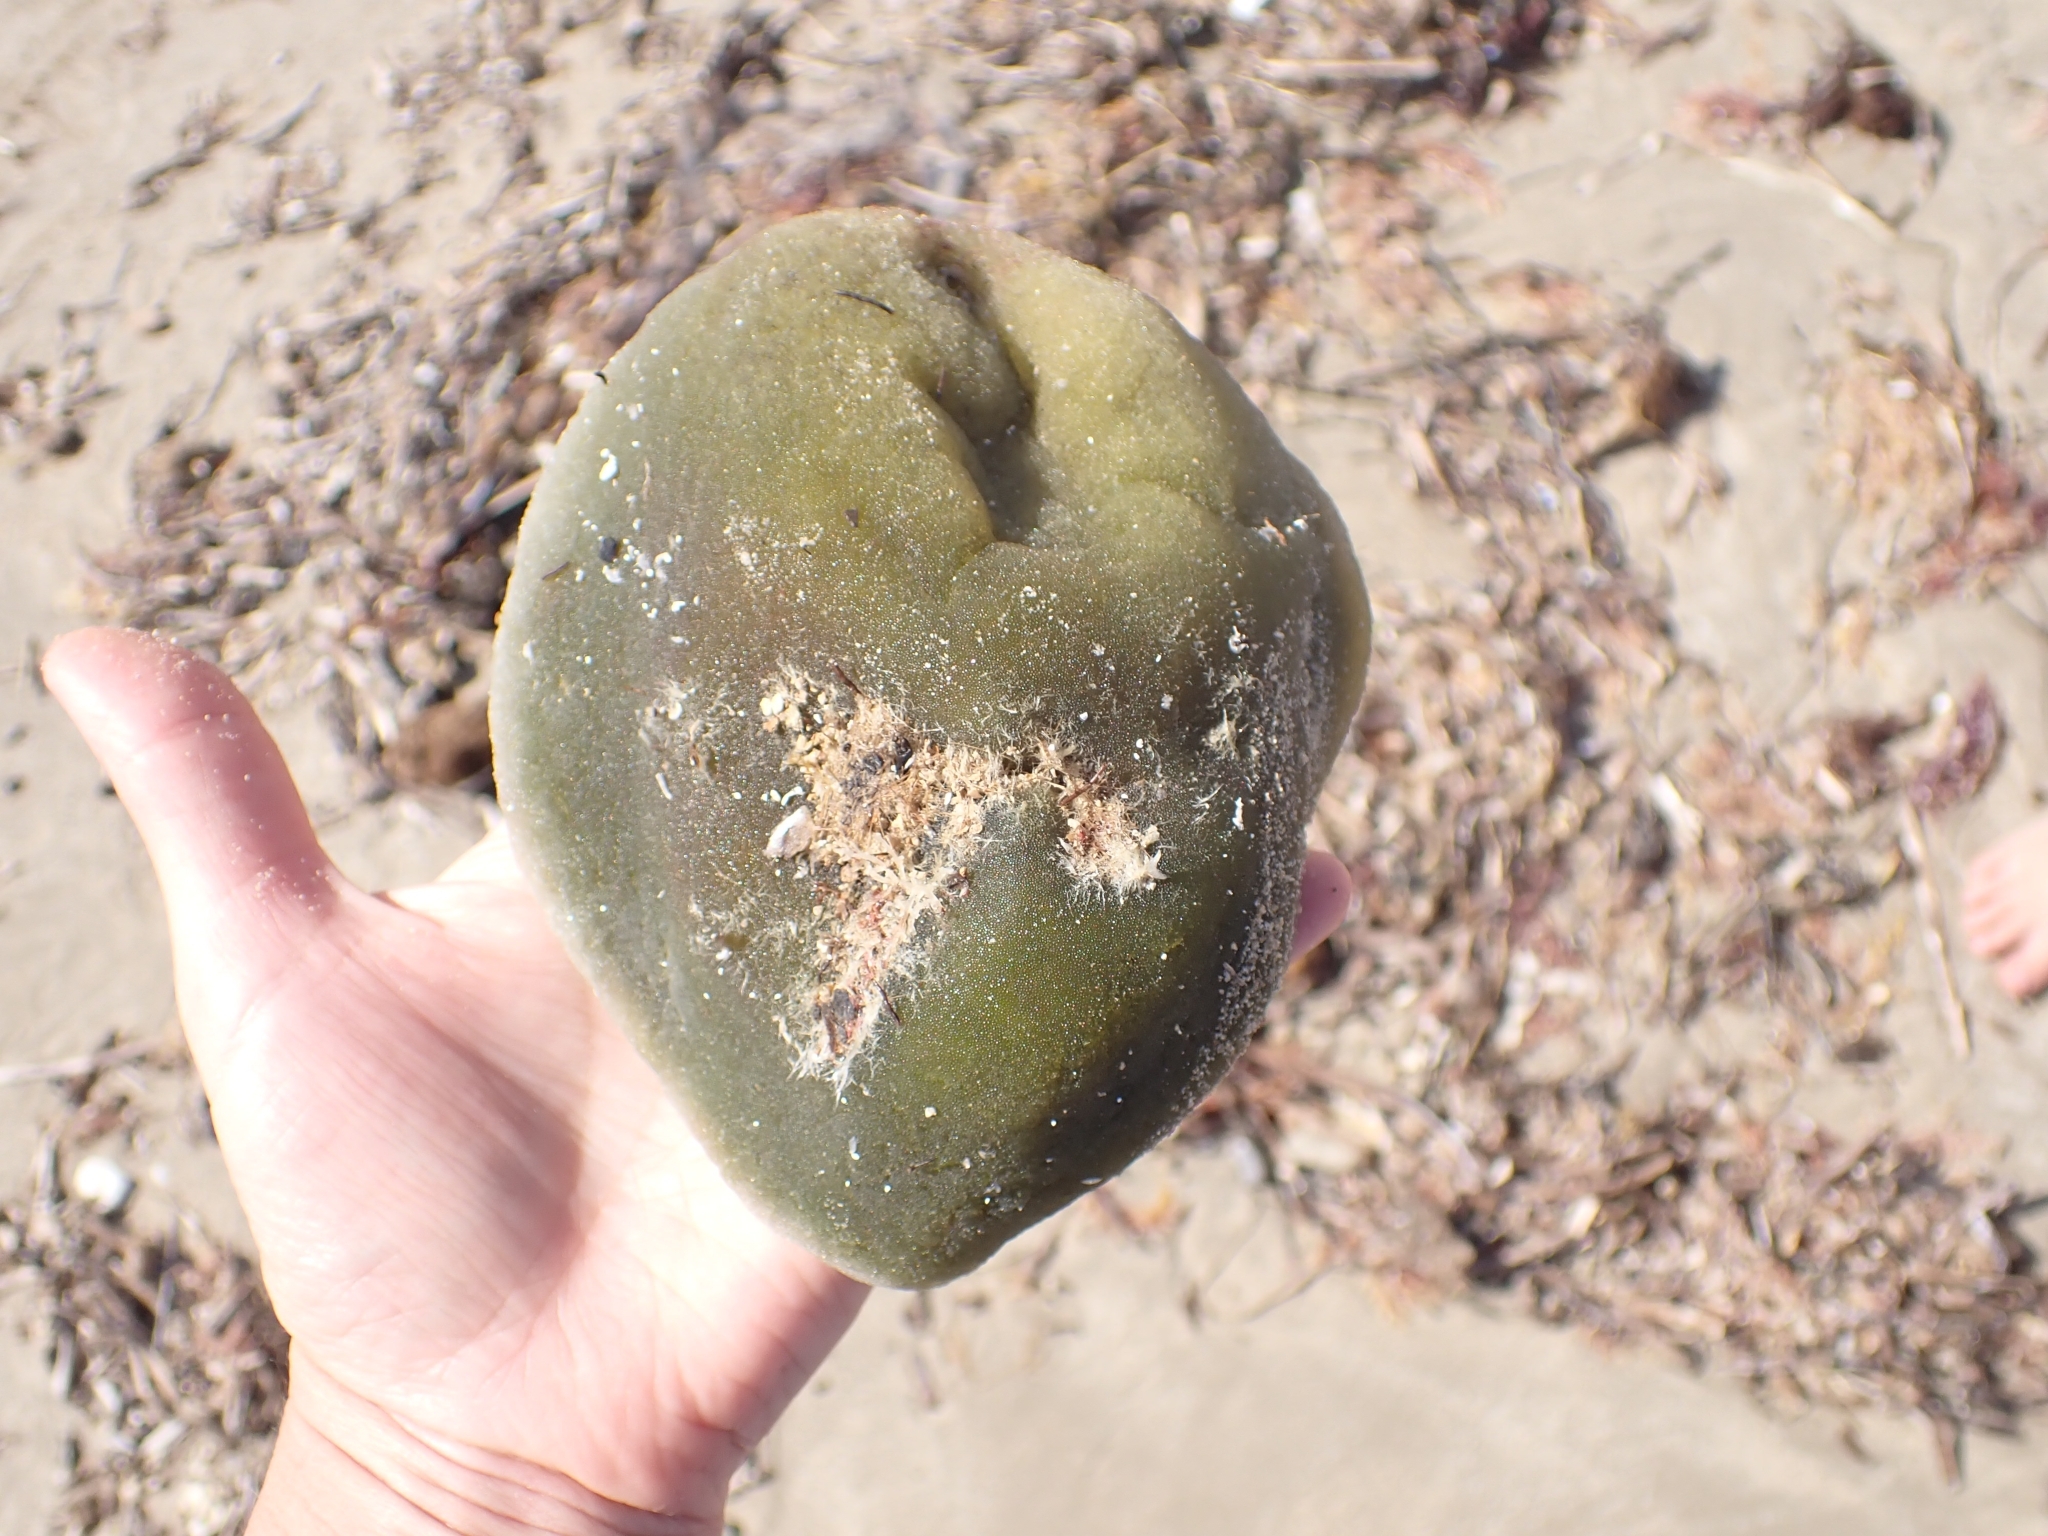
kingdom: Plantae
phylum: Chlorophyta
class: Ulvophyceae
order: Bryopsidales
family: Codiaceae
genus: Codium
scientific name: Codium bursa
